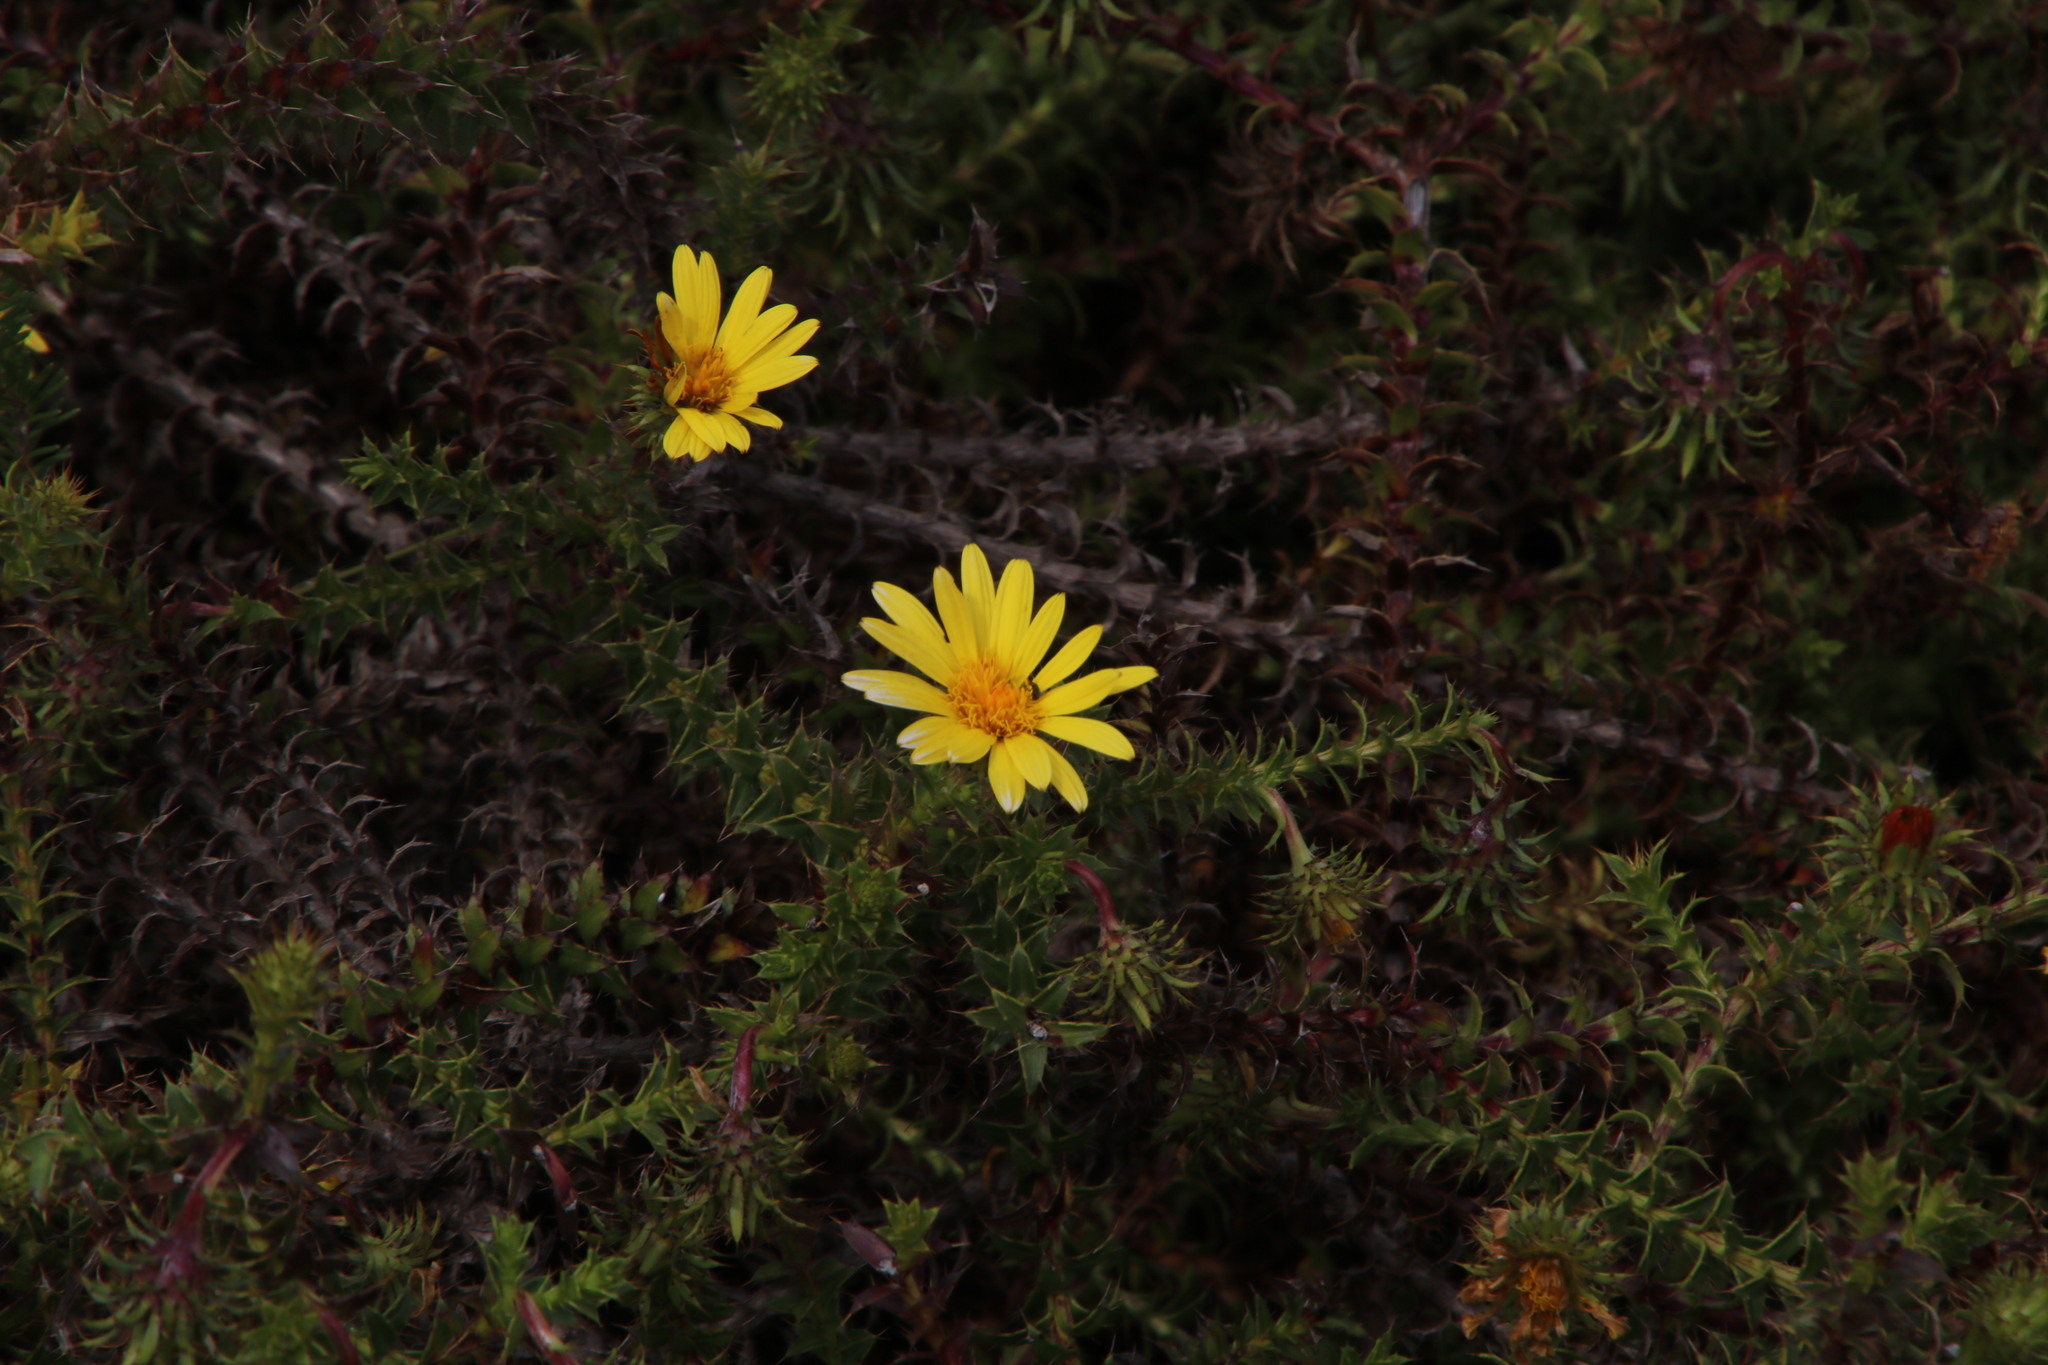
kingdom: Plantae
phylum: Tracheophyta
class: Magnoliopsida
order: Asterales
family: Asteraceae
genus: Cullumia
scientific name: Cullumia setosa
